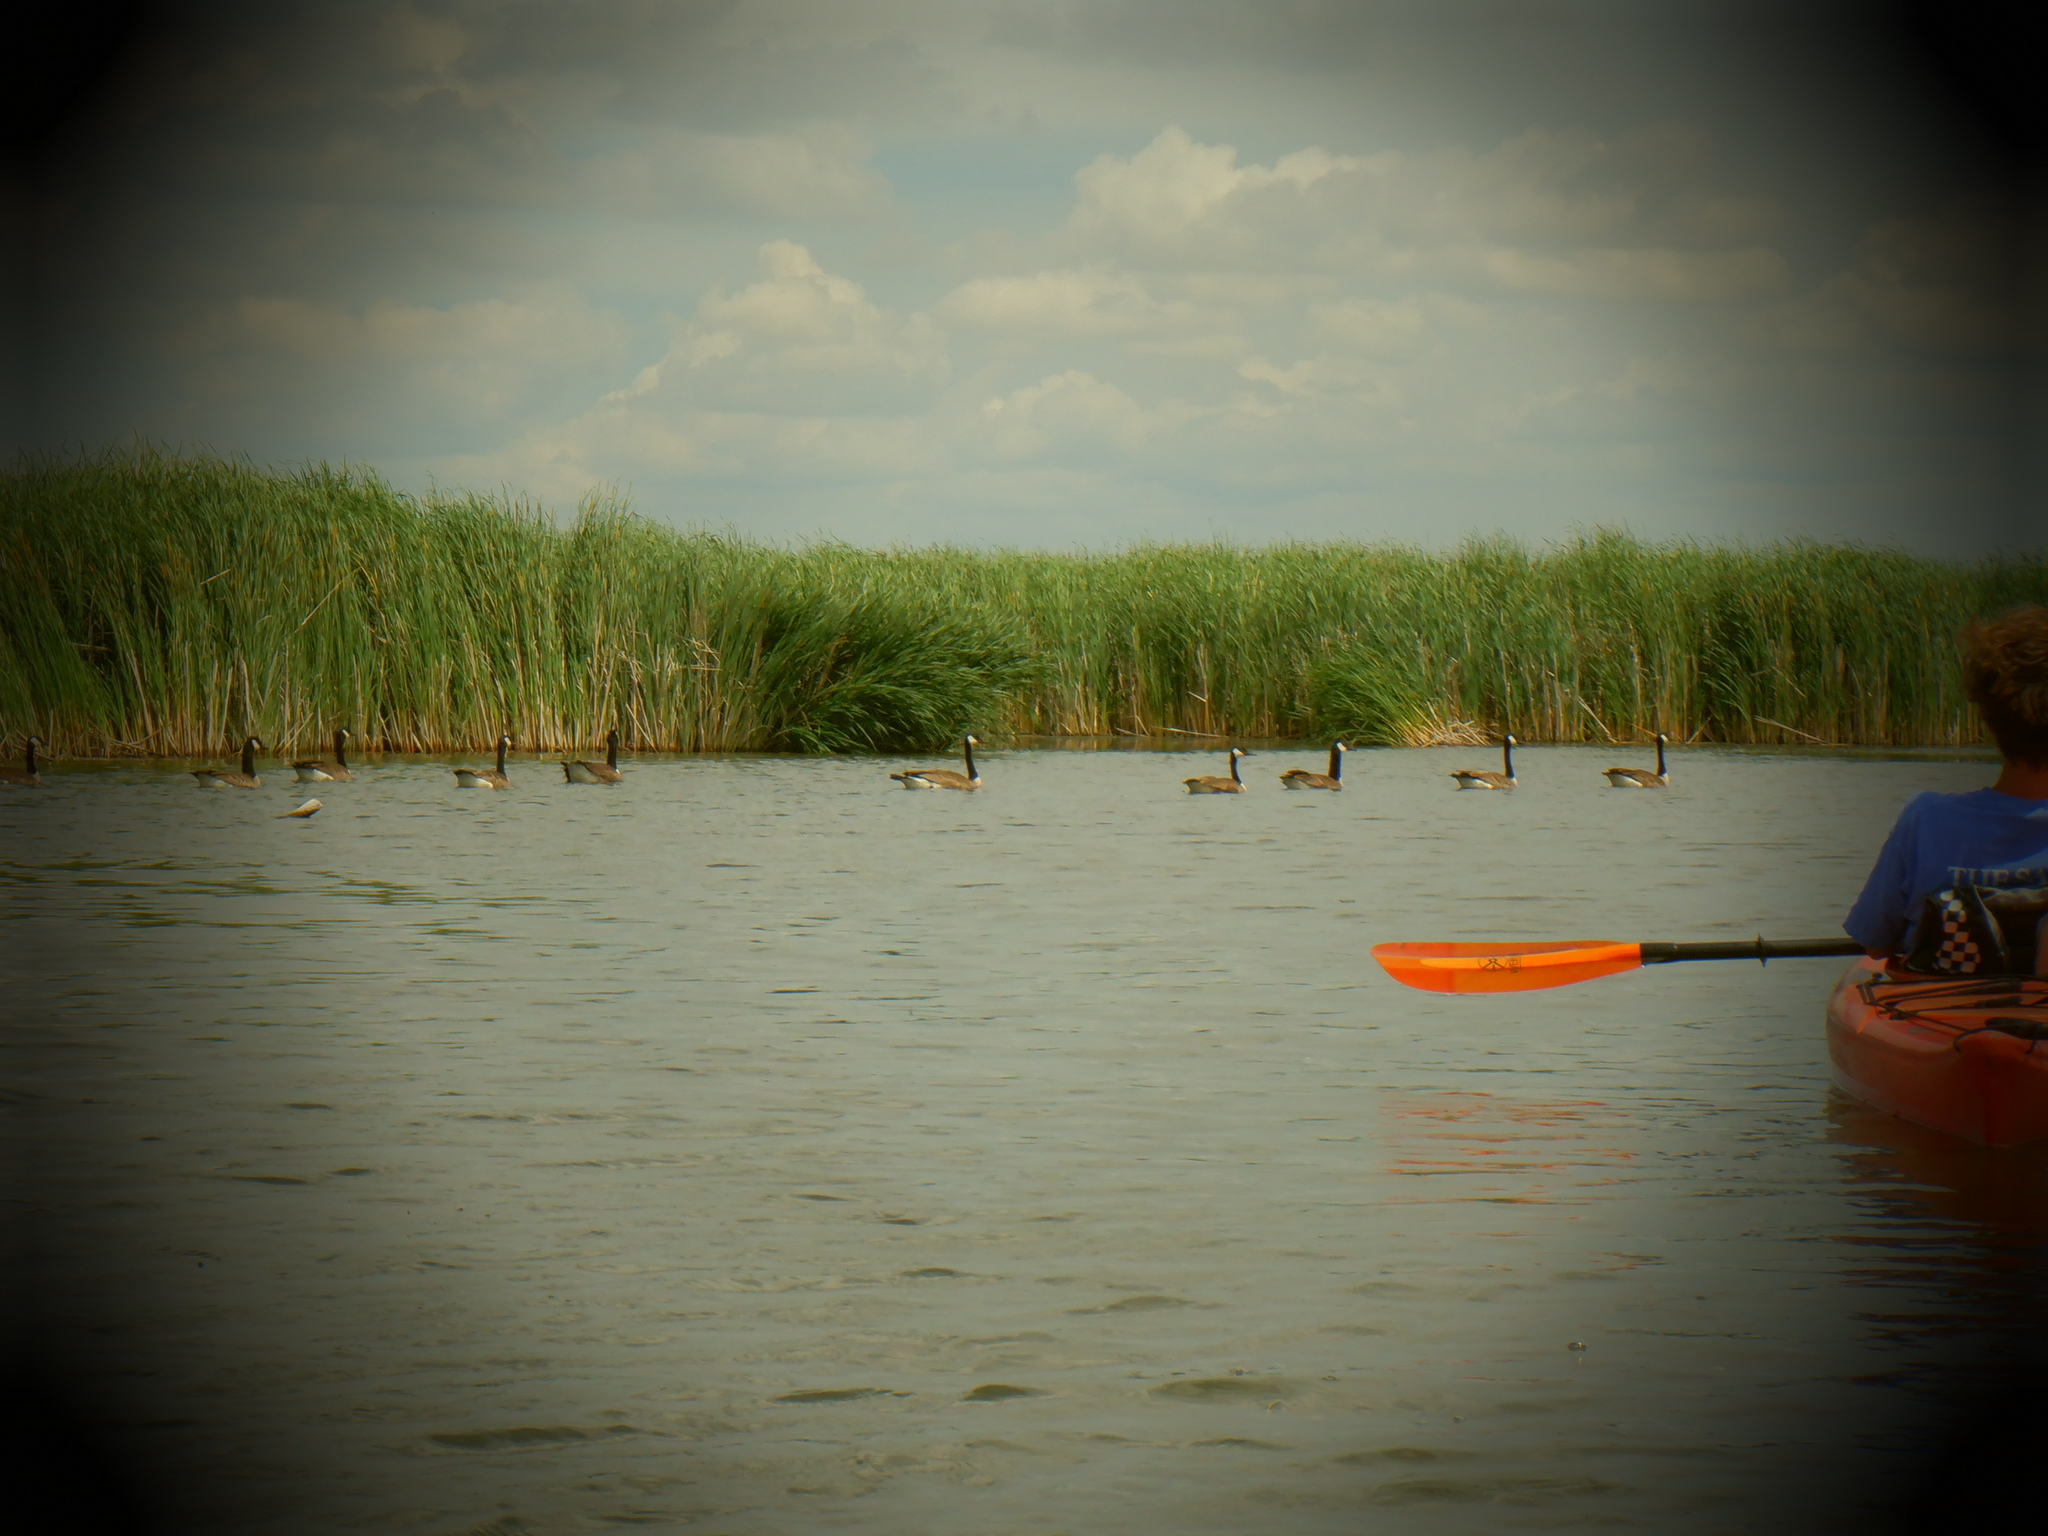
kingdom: Animalia
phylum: Chordata
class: Aves
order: Anseriformes
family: Anatidae
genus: Branta
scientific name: Branta canadensis
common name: Canada goose
